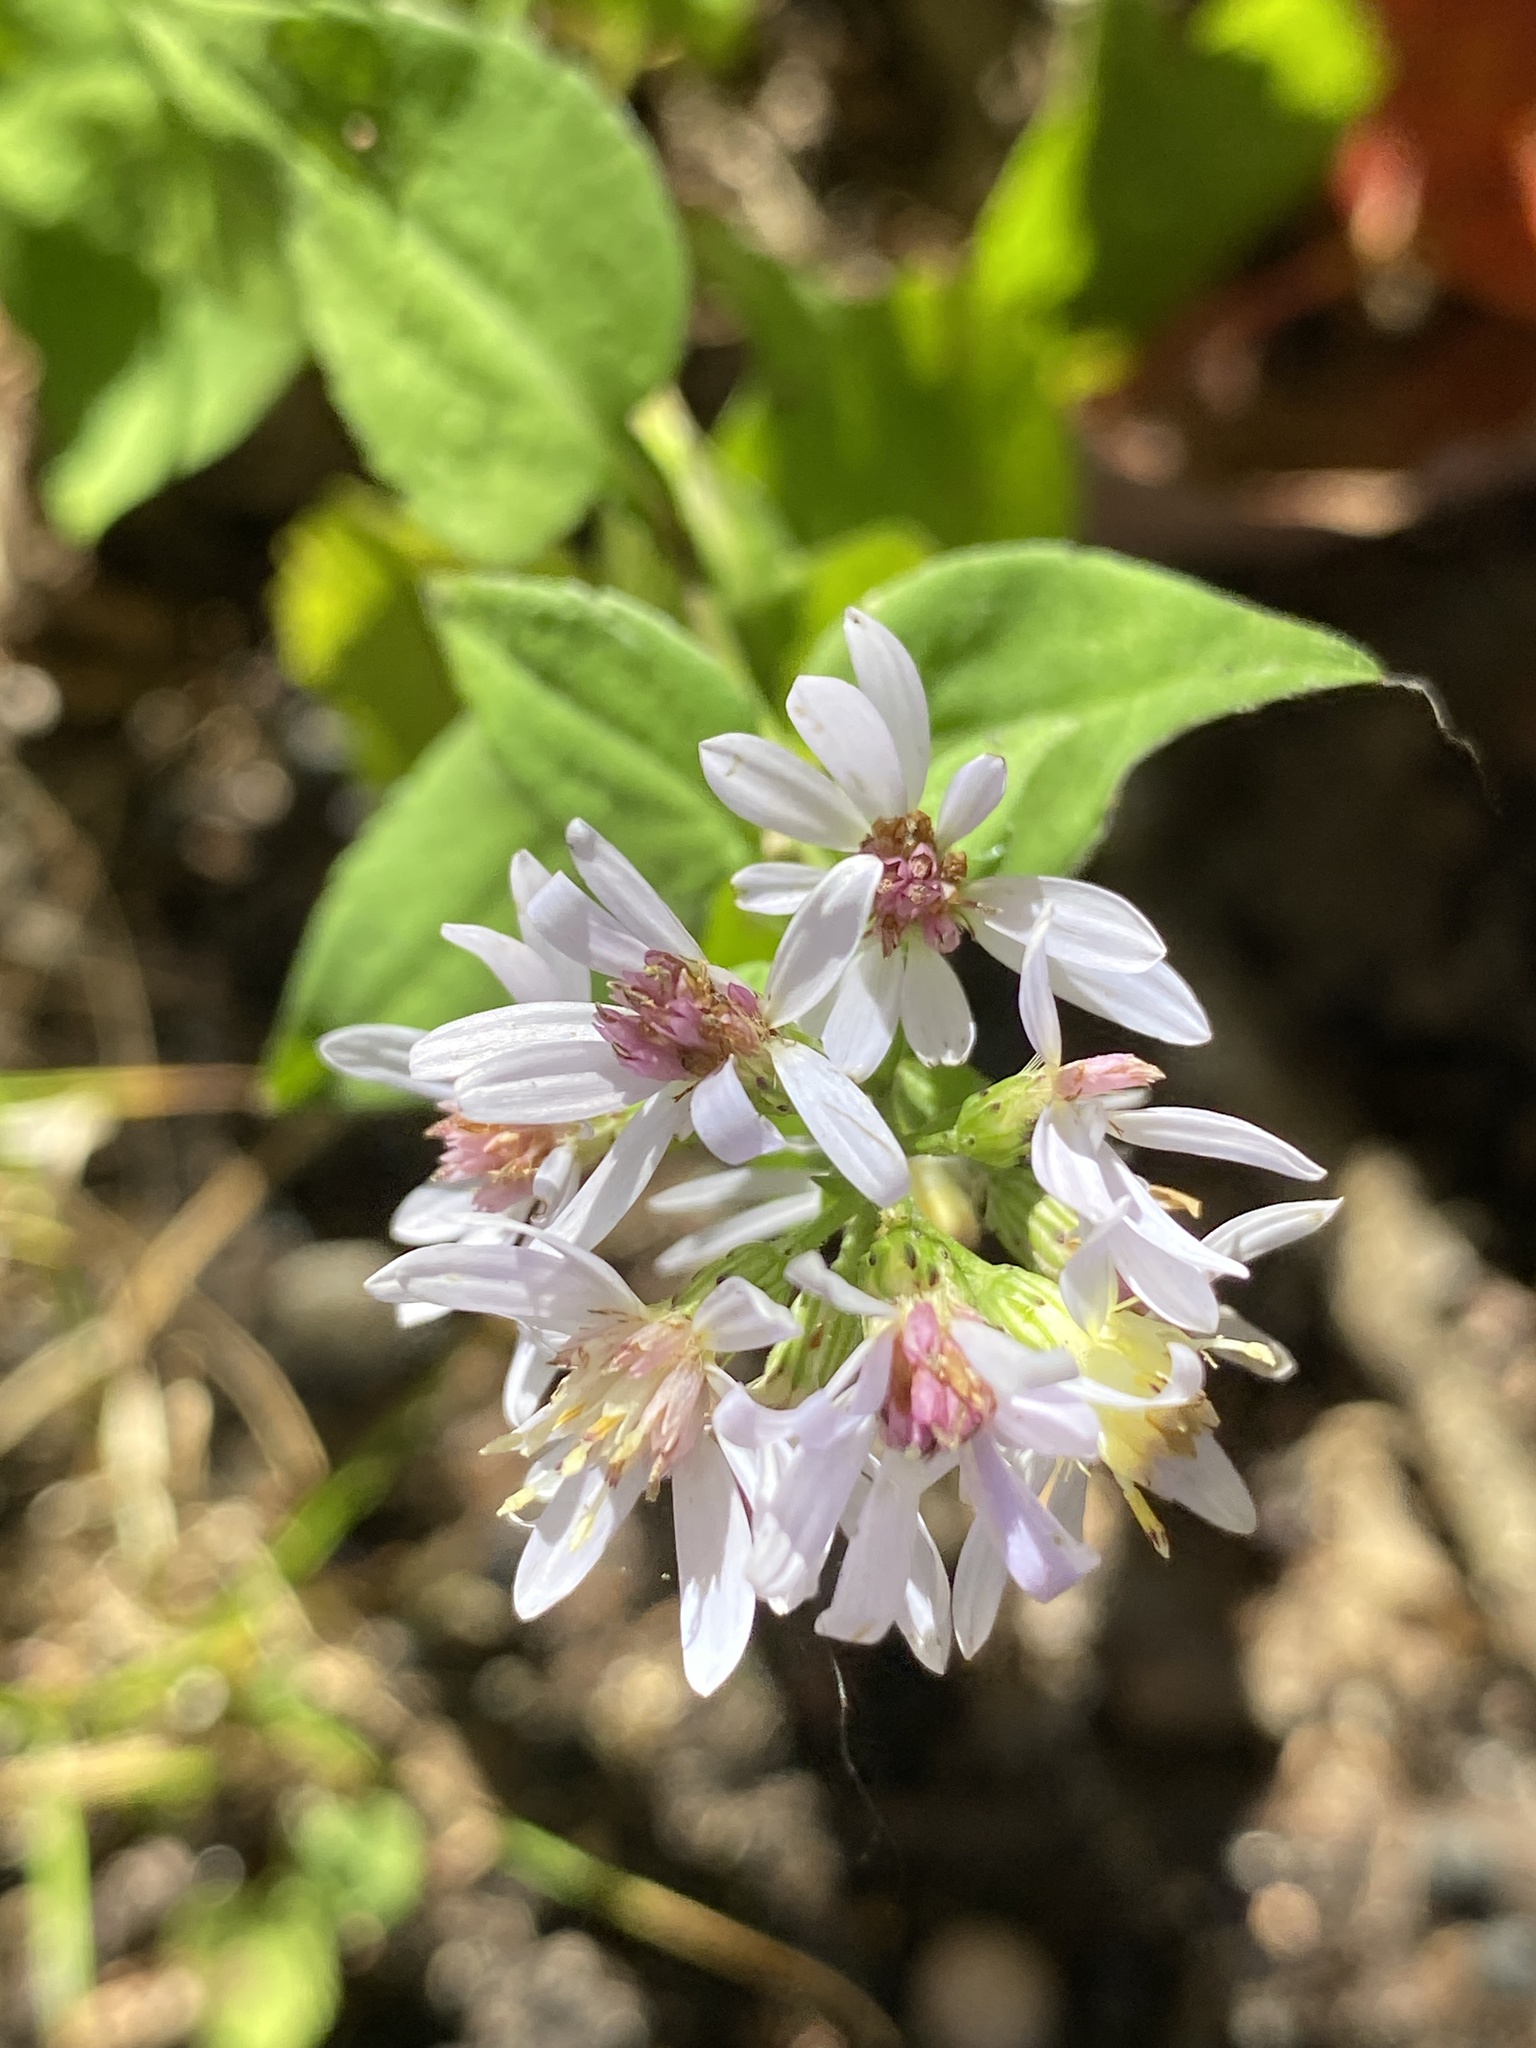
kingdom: Plantae
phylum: Tracheophyta
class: Magnoliopsida
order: Asterales
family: Asteraceae
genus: Symphyotrichum
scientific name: Symphyotrichum cordifolium
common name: Beeweed
